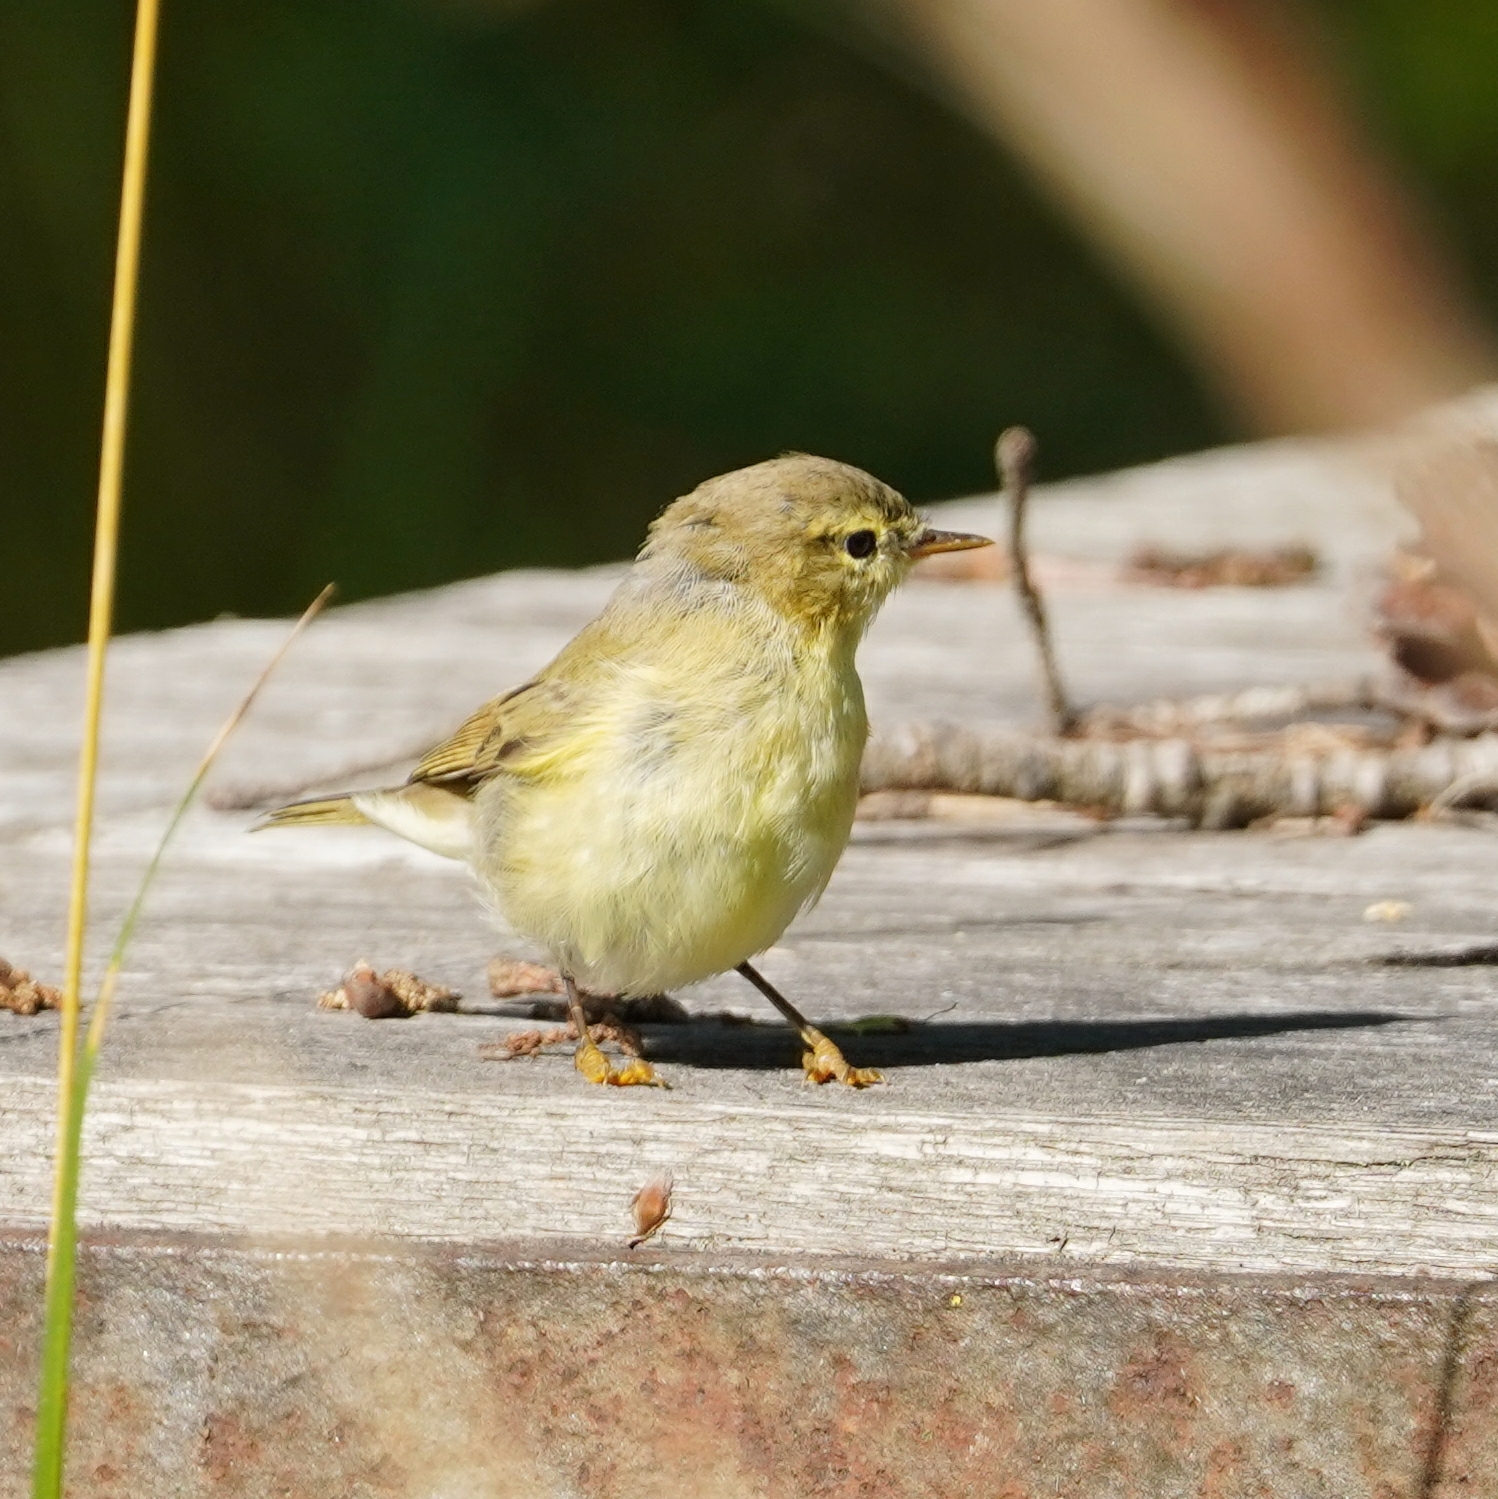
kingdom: Animalia
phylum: Chordata
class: Aves
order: Passeriformes
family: Phylloscopidae
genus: Phylloscopus
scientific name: Phylloscopus trochilus
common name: Willow warbler
